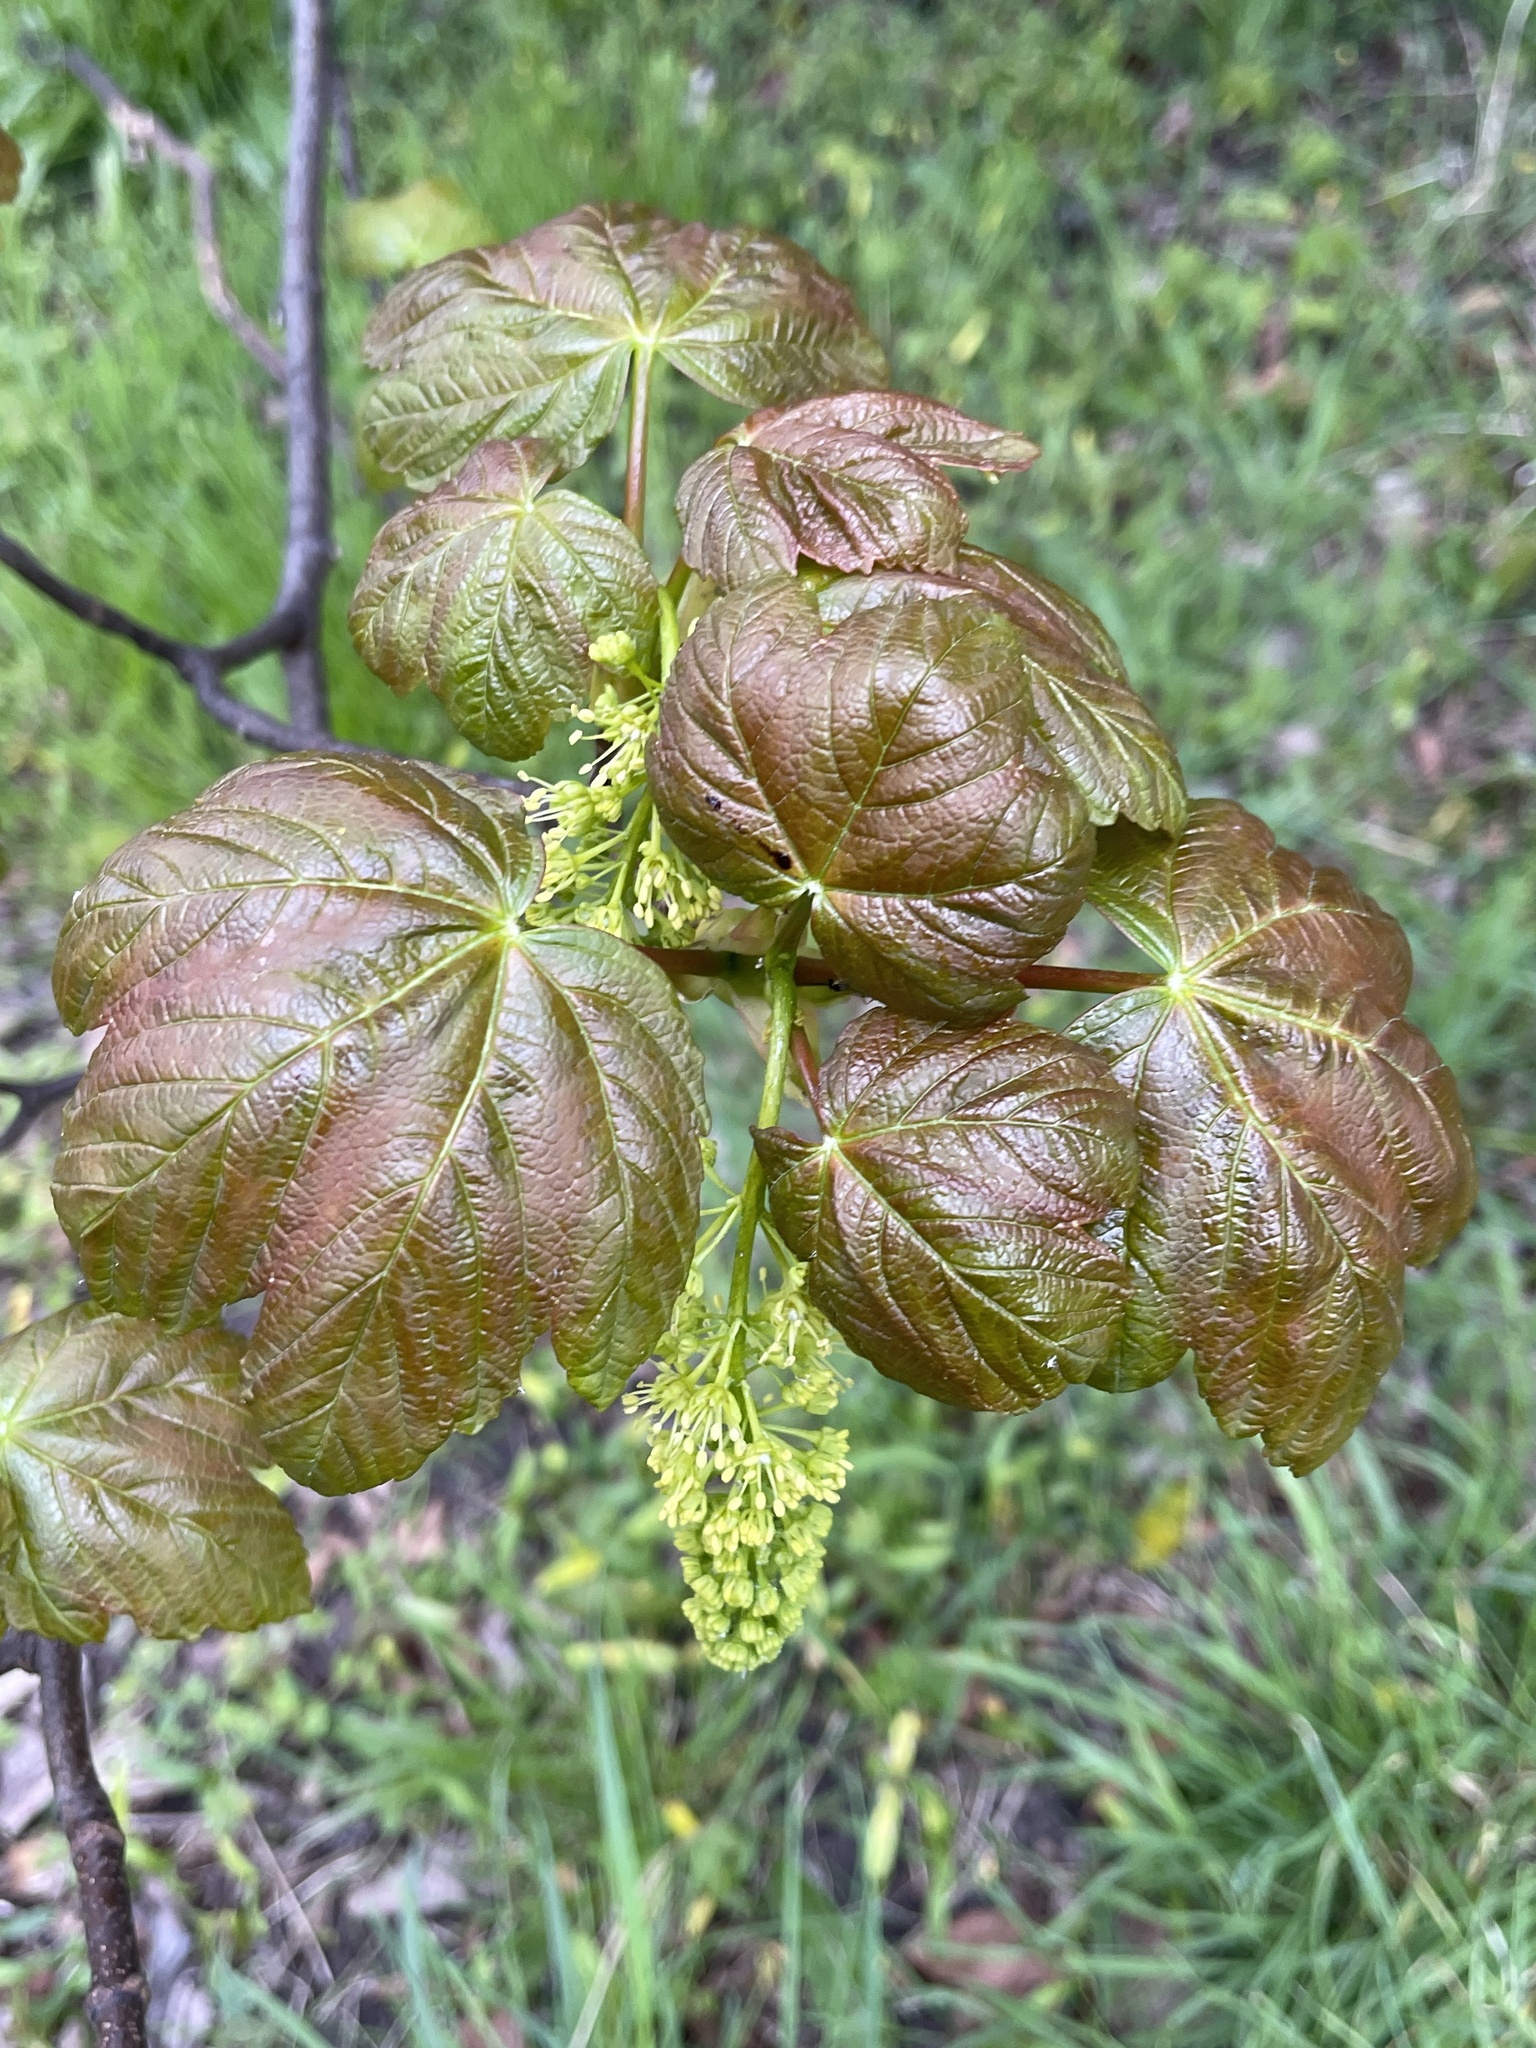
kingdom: Plantae
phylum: Tracheophyta
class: Magnoliopsida
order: Sapindales
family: Sapindaceae
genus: Acer
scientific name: Acer pseudoplatanus
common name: Sycamore
